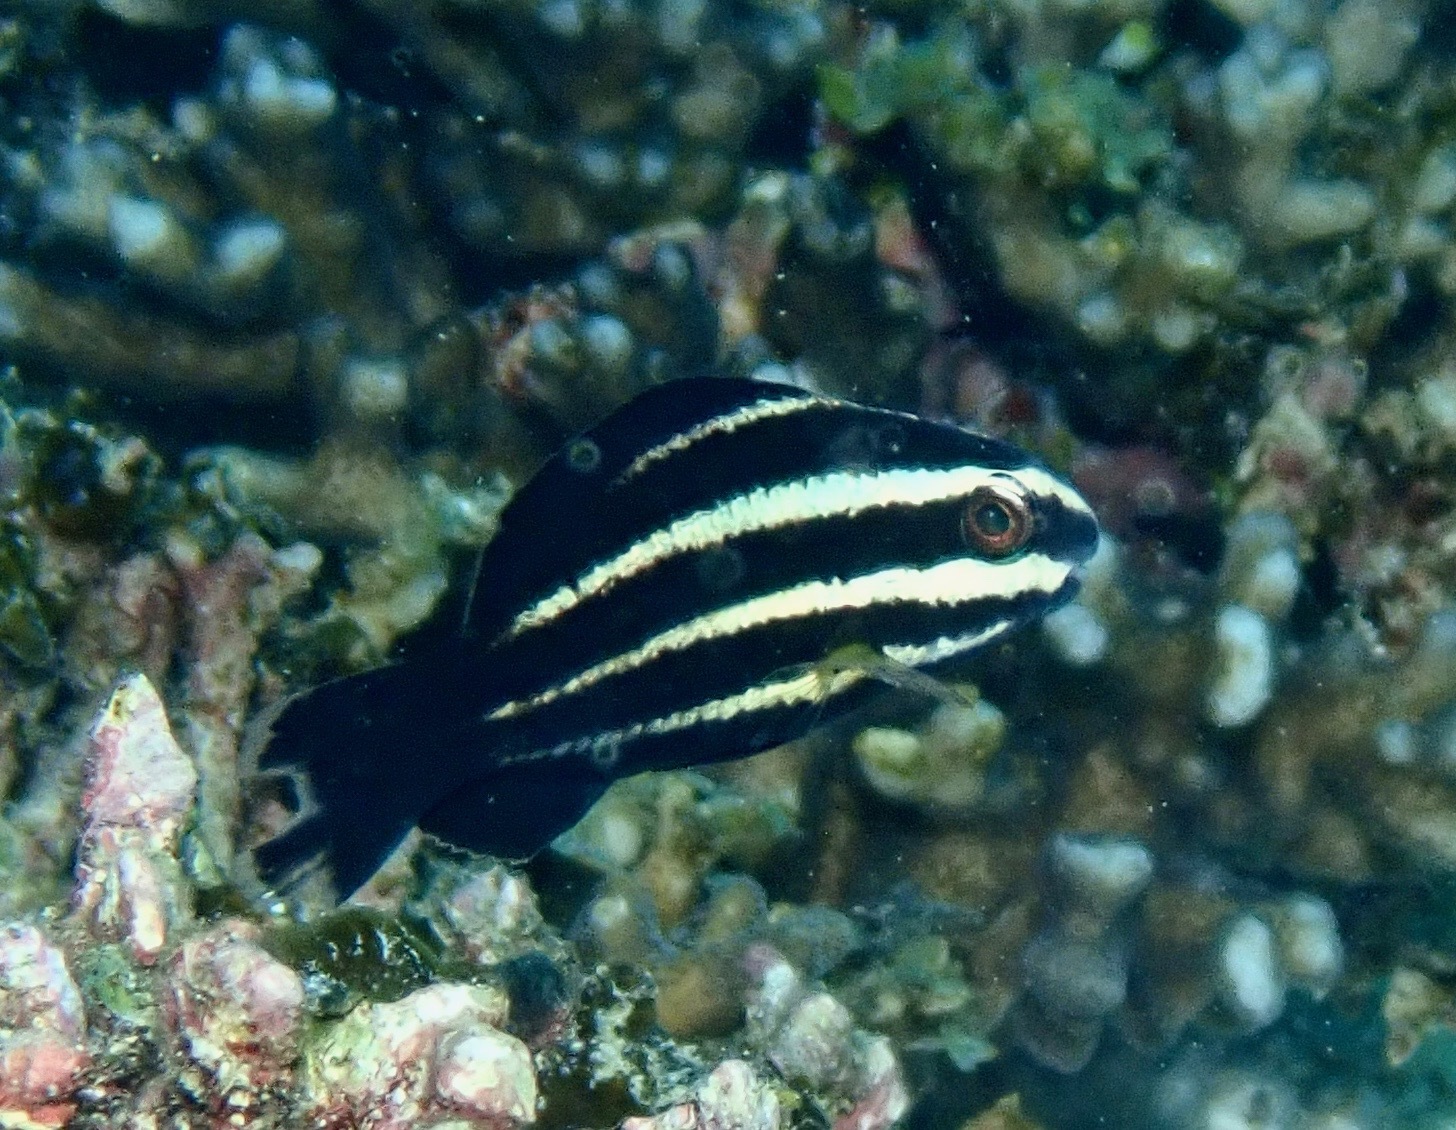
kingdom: Animalia
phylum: Chordata
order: Perciformes
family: Scaridae
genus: Chlorurus
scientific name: Chlorurus microrhinos
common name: Steephead parrotfish
